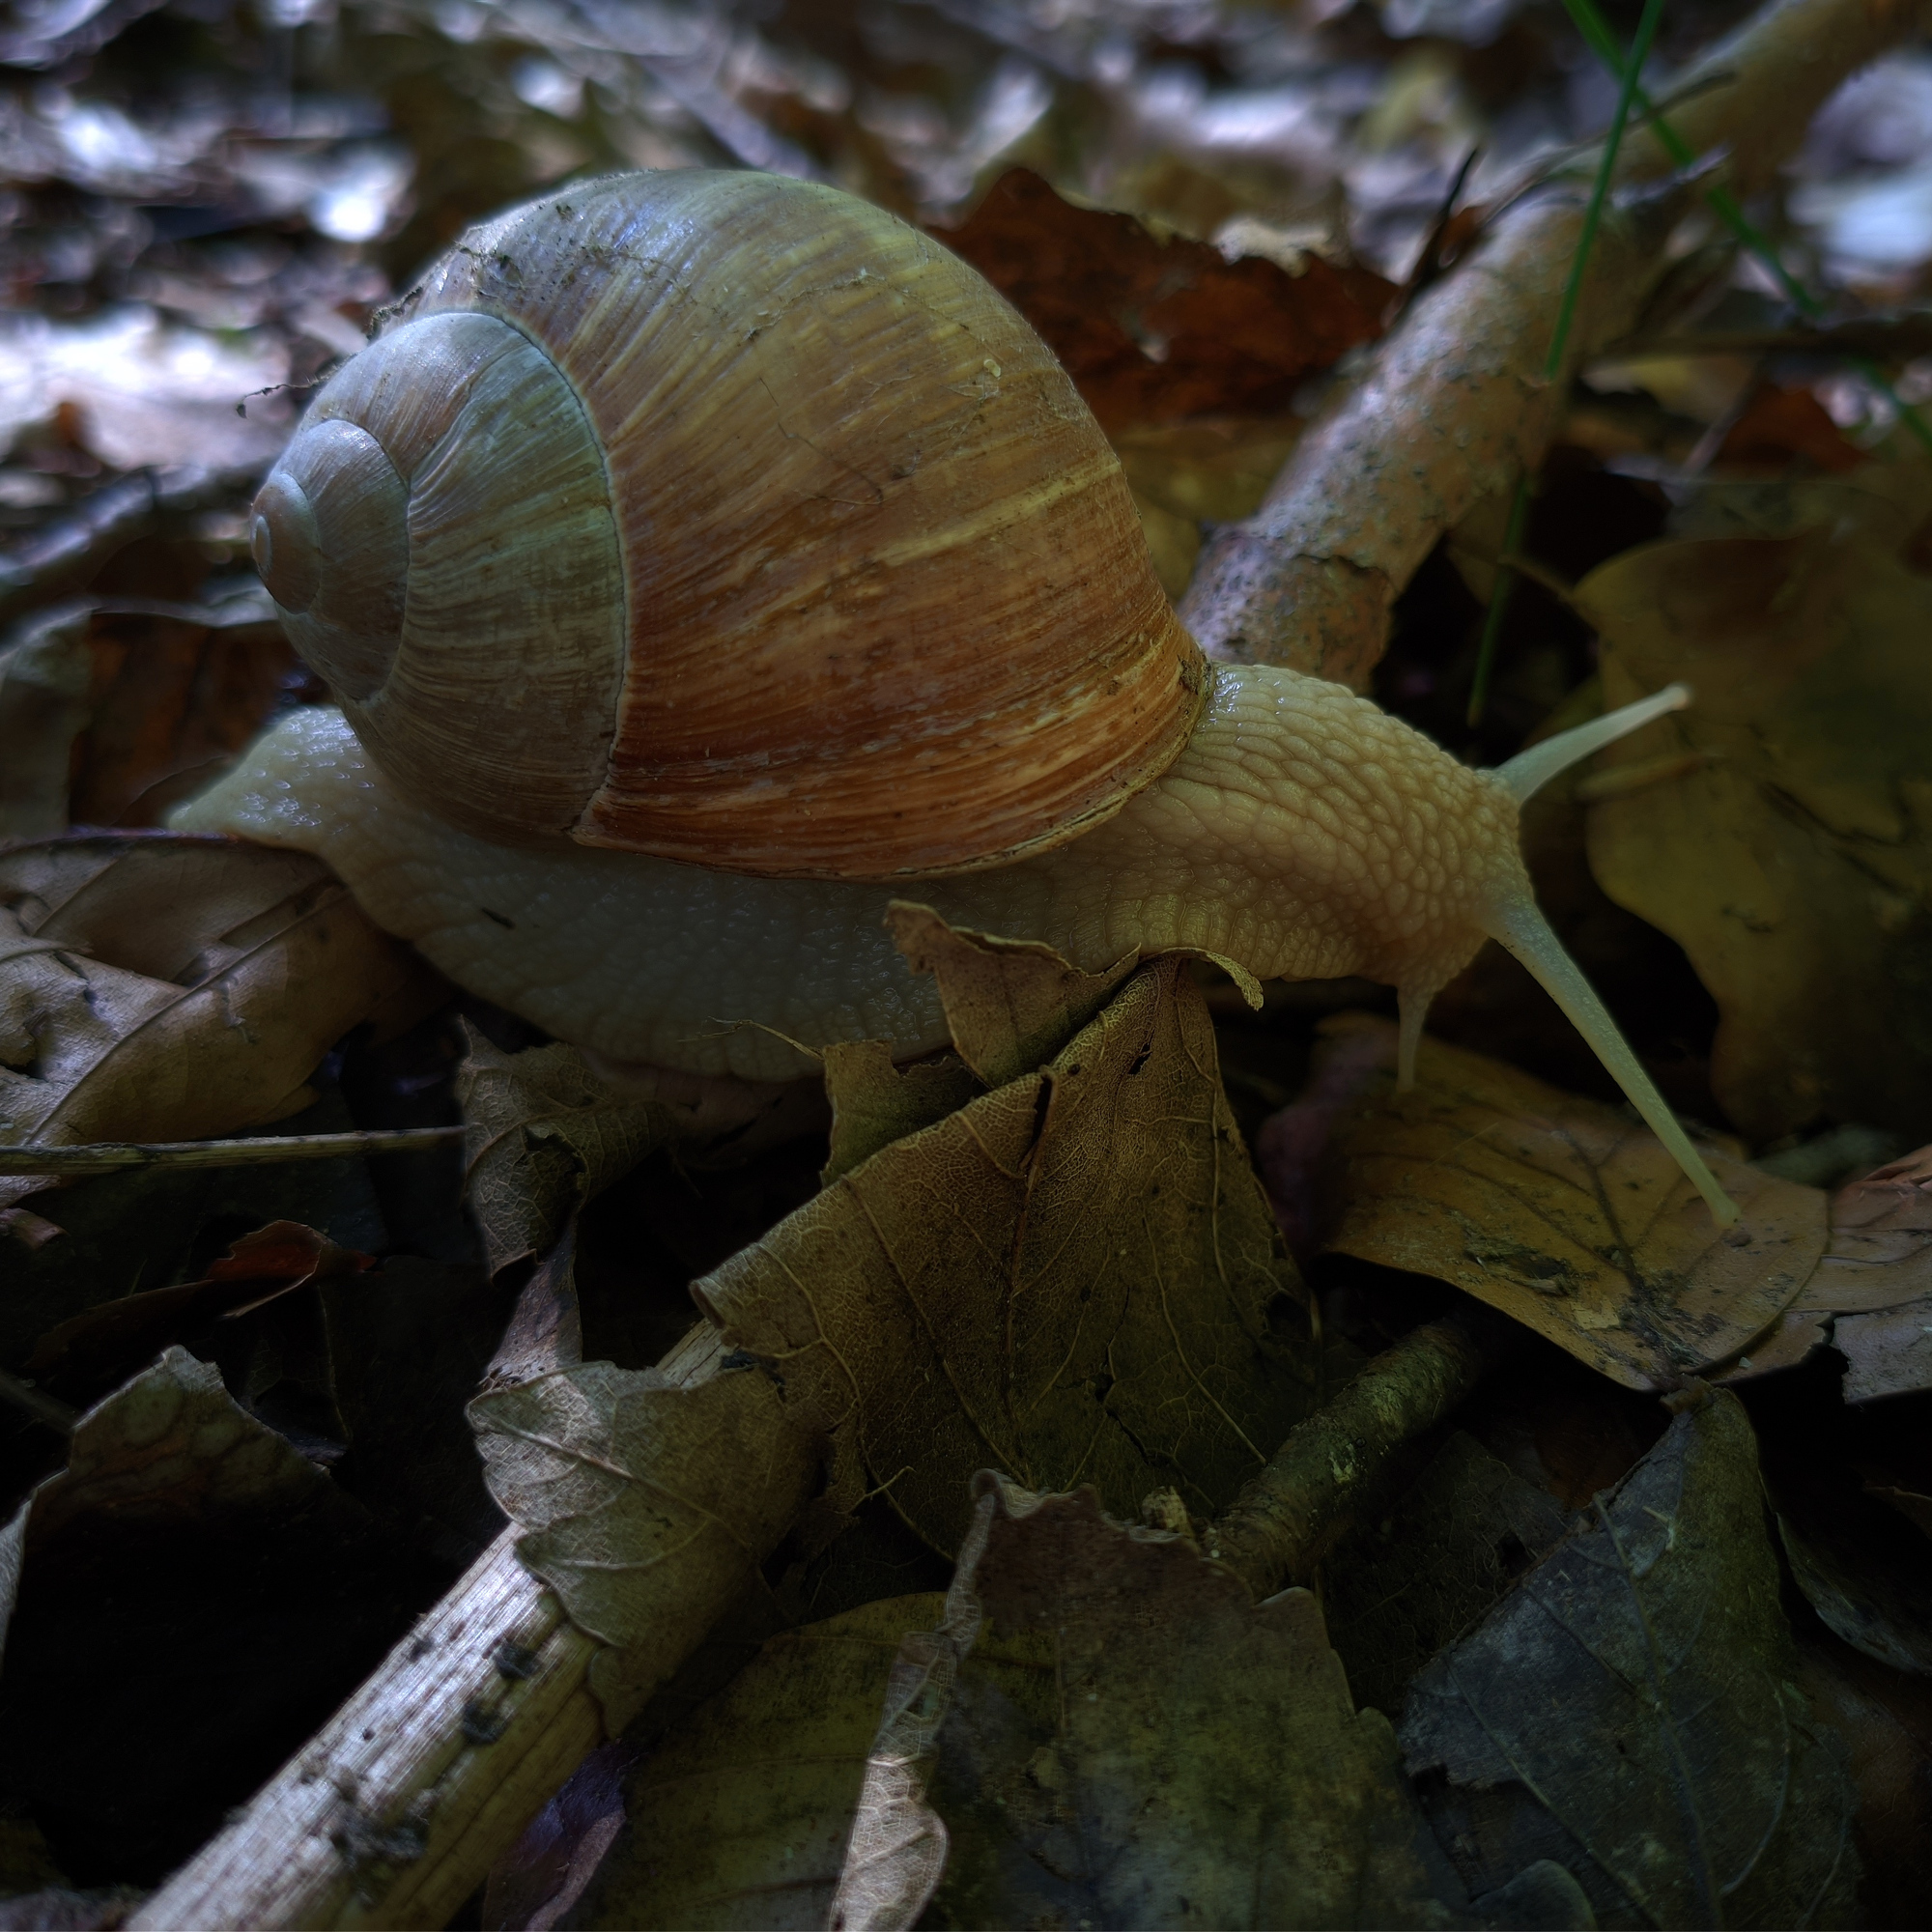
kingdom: Animalia
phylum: Mollusca
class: Gastropoda
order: Stylommatophora
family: Helicidae
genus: Helix
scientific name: Helix pomatia
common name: Roman snail
